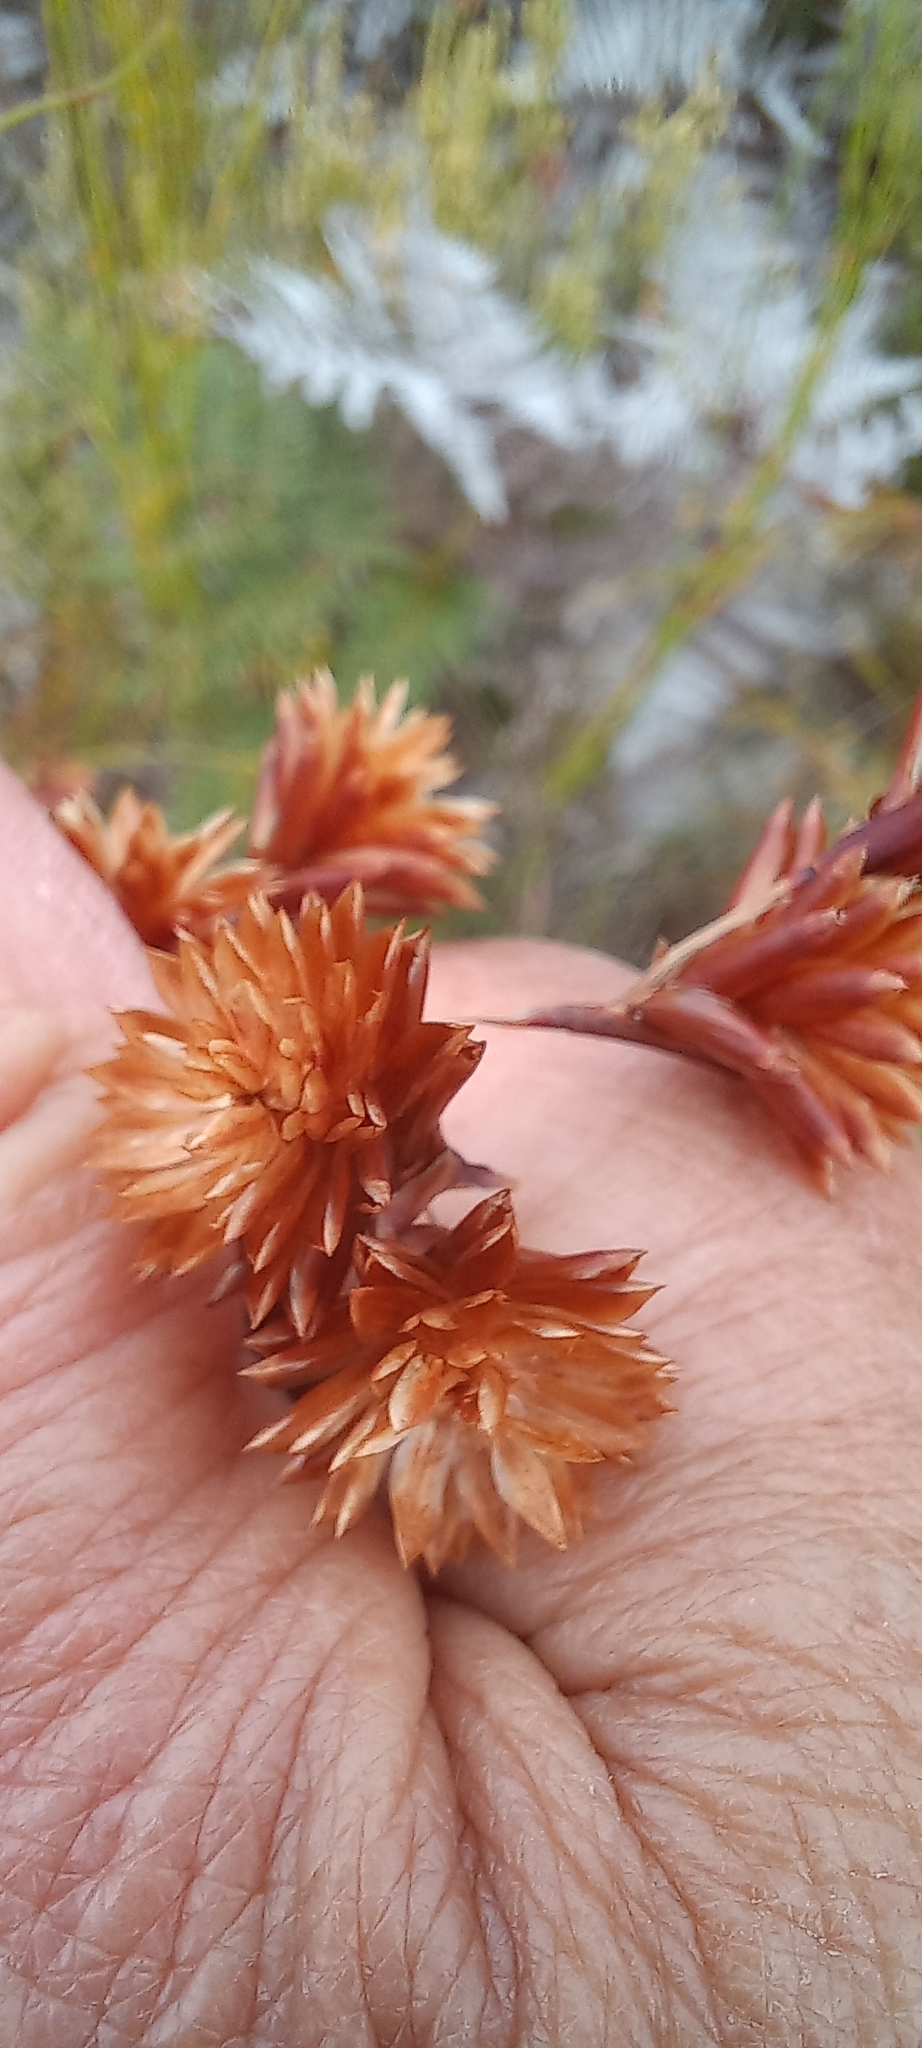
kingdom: Plantae
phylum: Tracheophyta
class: Liliopsida
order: Poales
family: Restionaceae
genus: Staberoha
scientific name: Staberoha cernua
